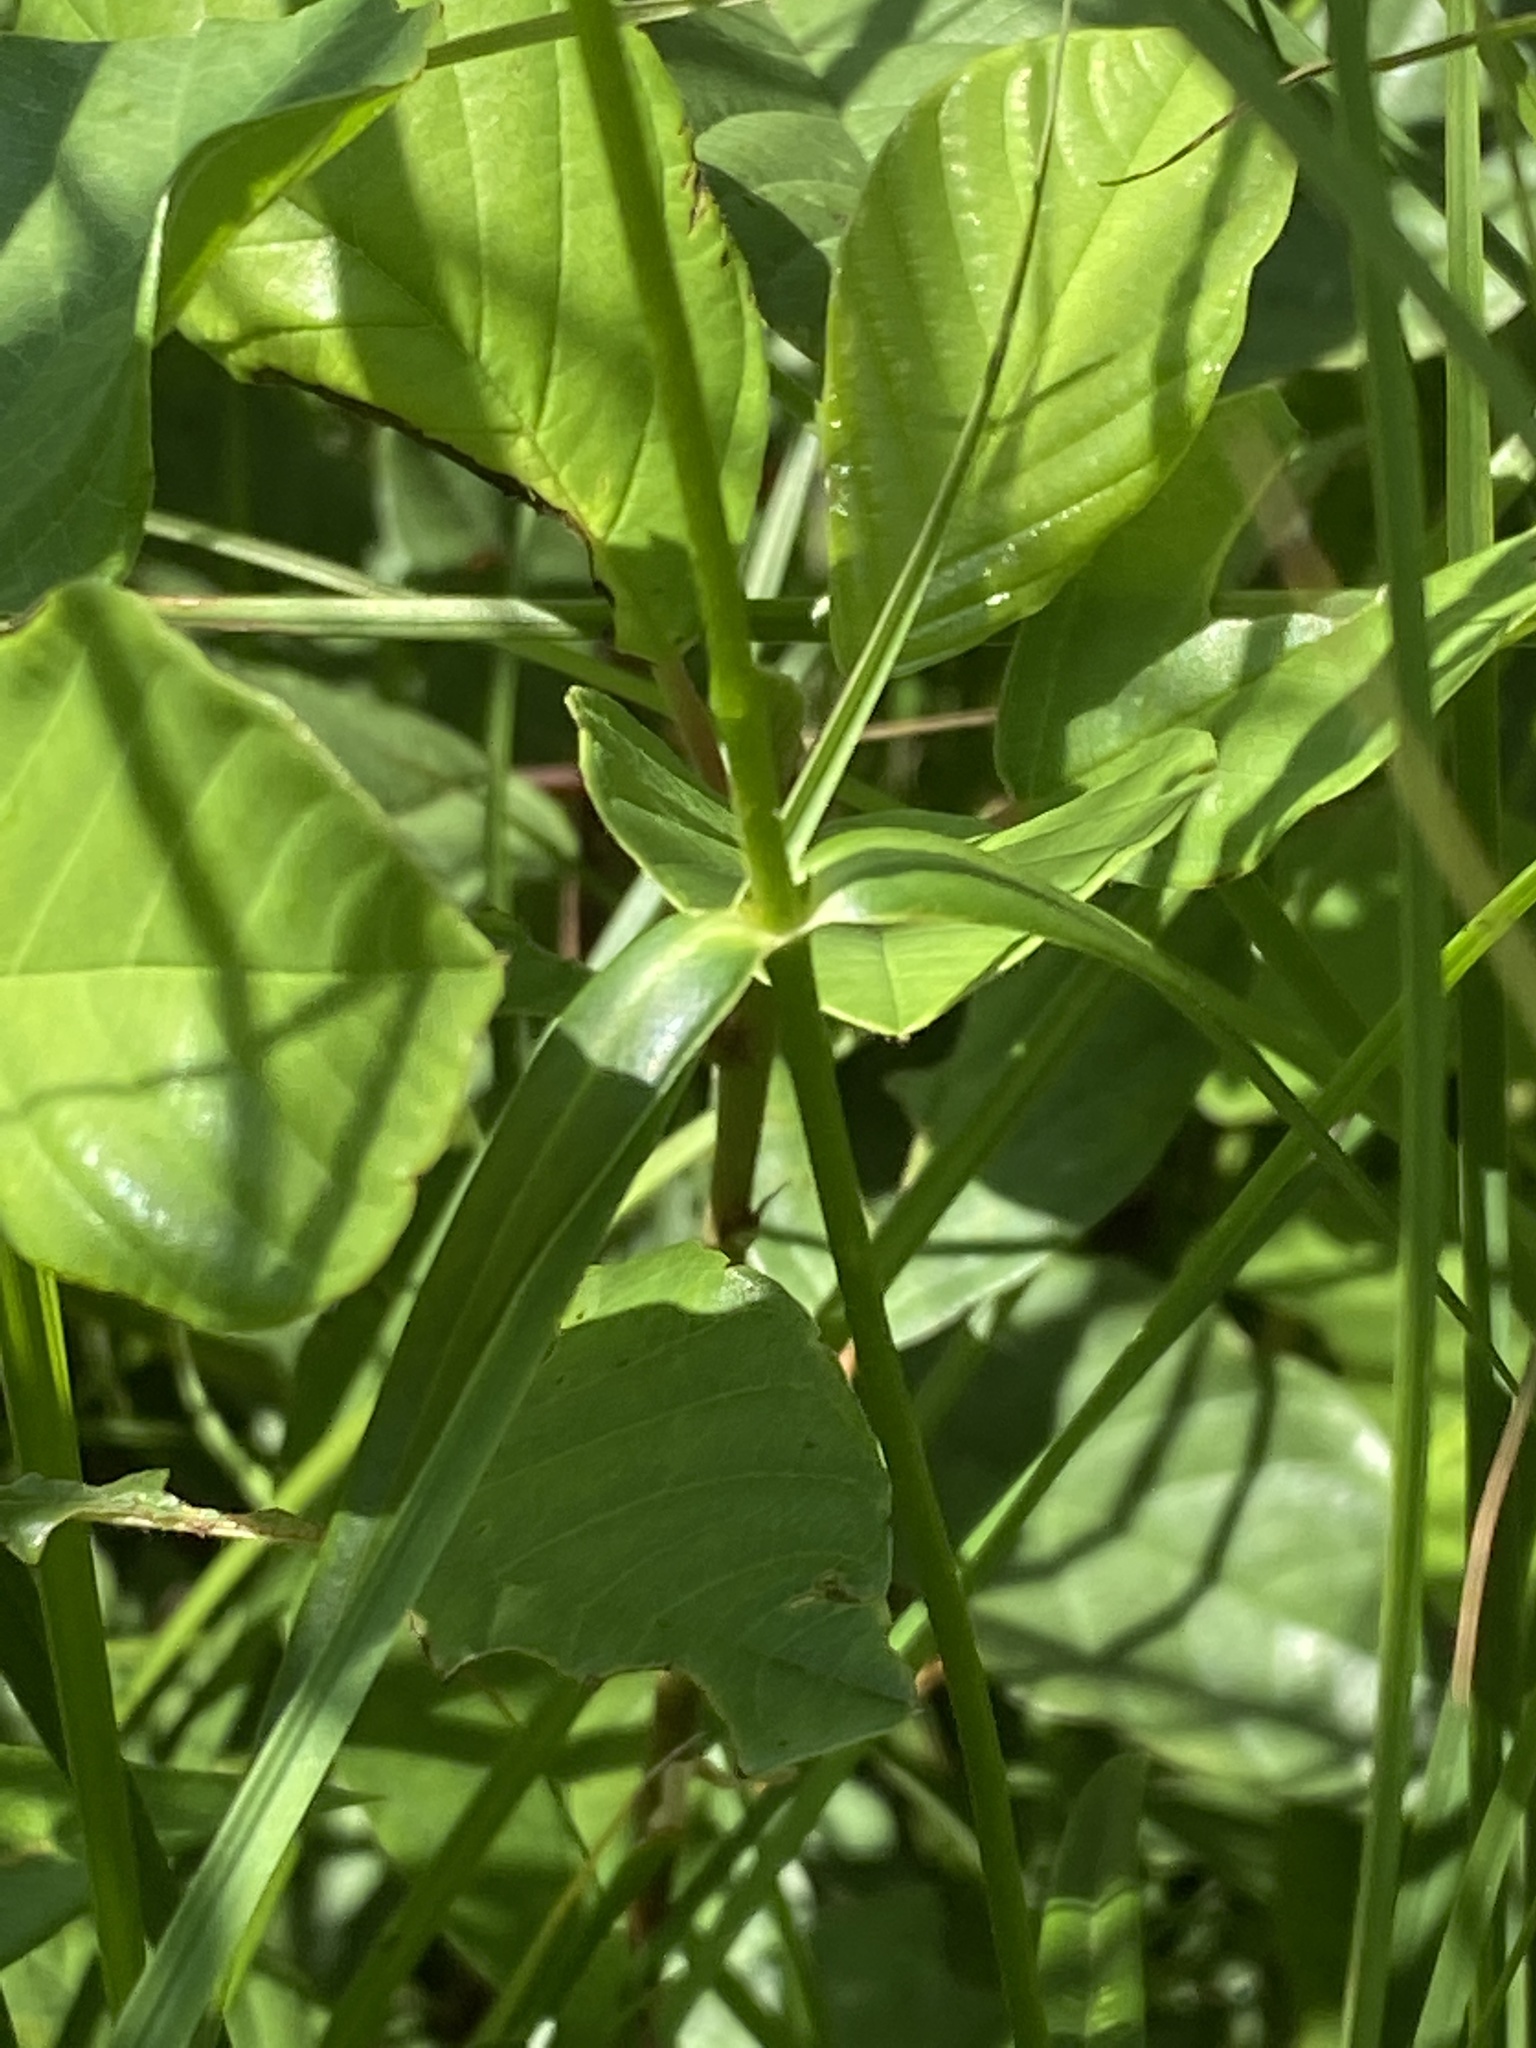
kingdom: Plantae
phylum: Tracheophyta
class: Magnoliopsida
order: Ericales
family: Polemoniaceae
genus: Phlox
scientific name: Phlox glaberrima
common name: Smooth phlox
